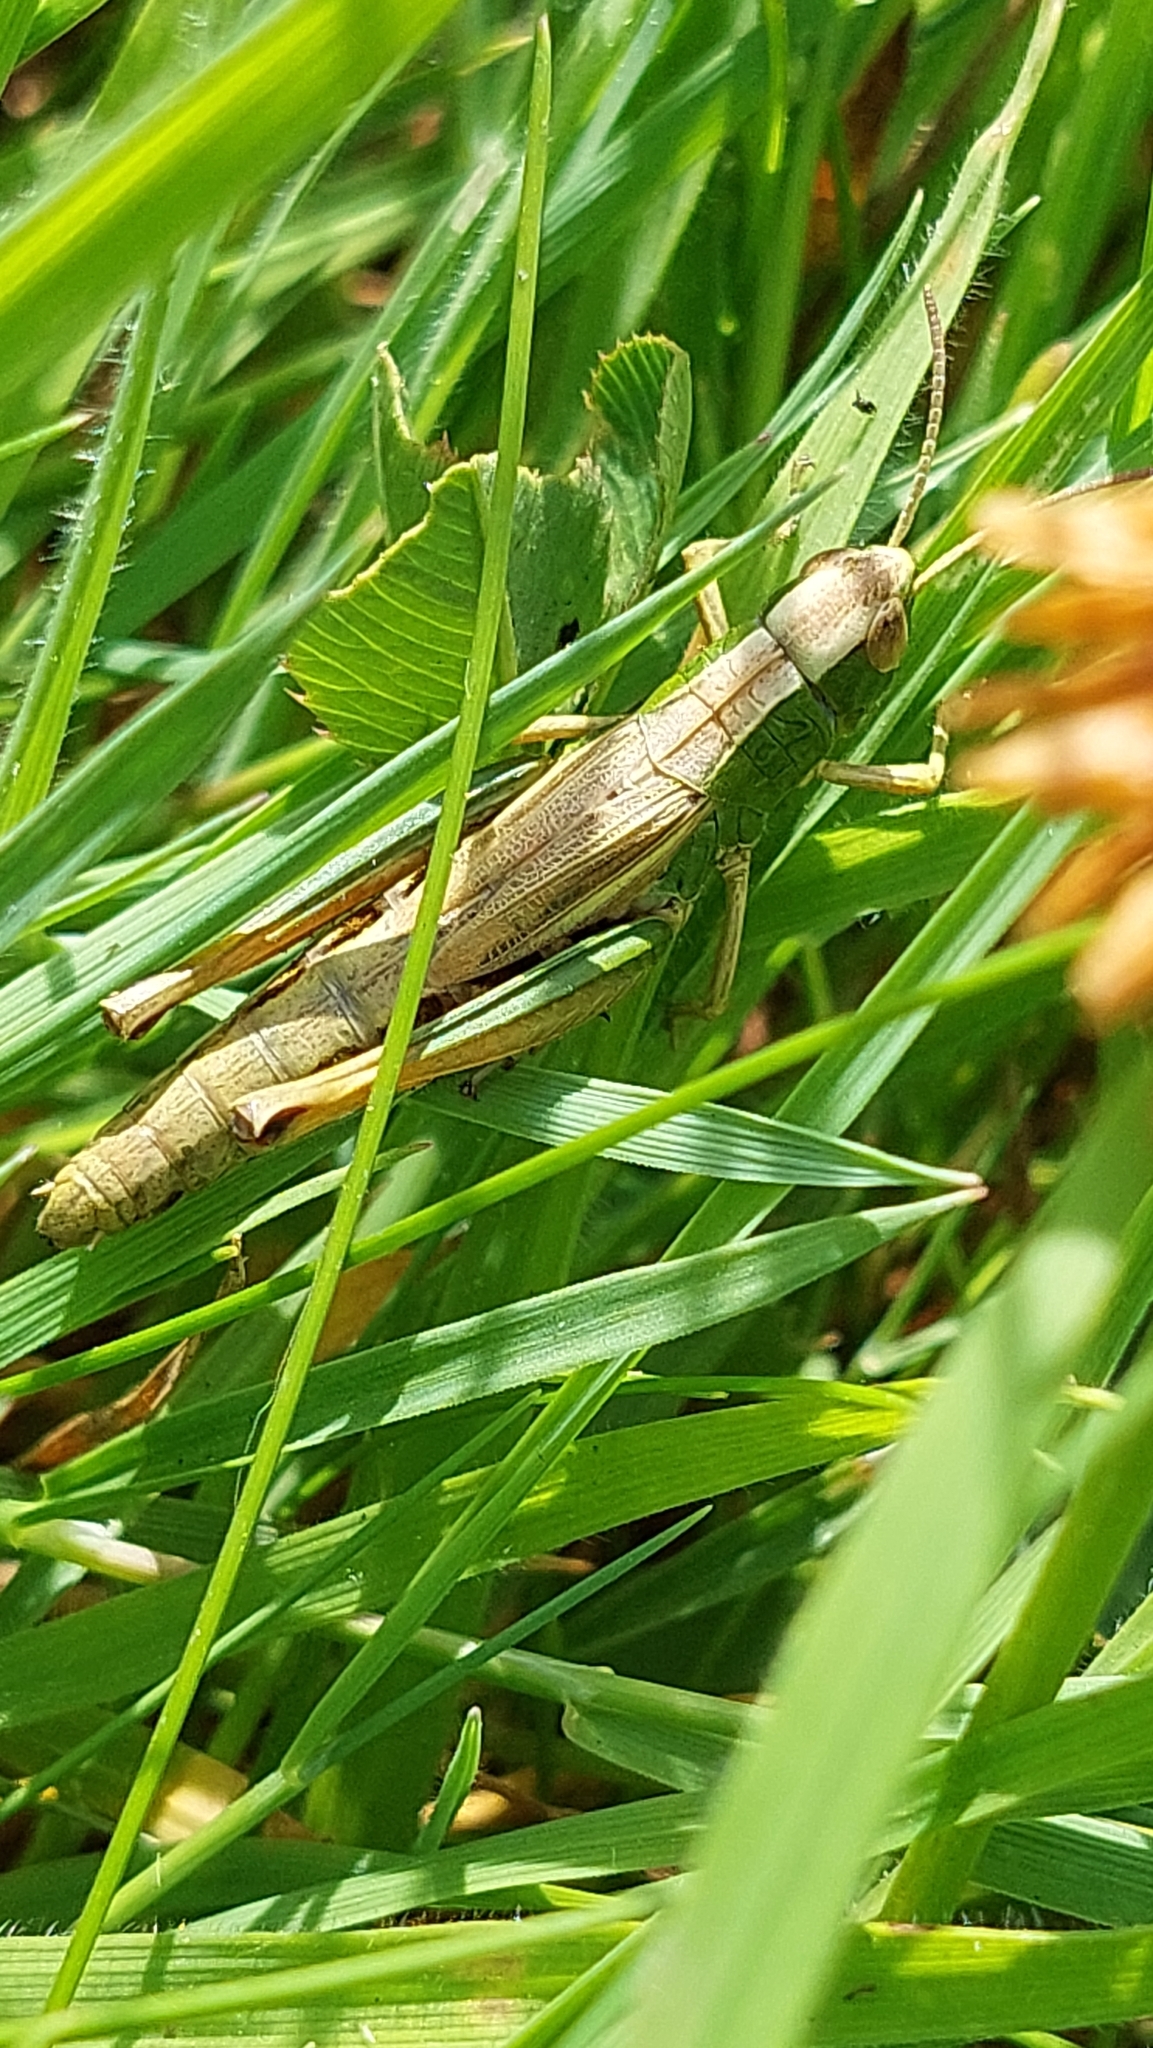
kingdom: Animalia
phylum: Arthropoda
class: Insecta
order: Orthoptera
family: Acrididae
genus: Pseudochorthippus
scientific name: Pseudochorthippus parallelus
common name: Meadow grasshopper
